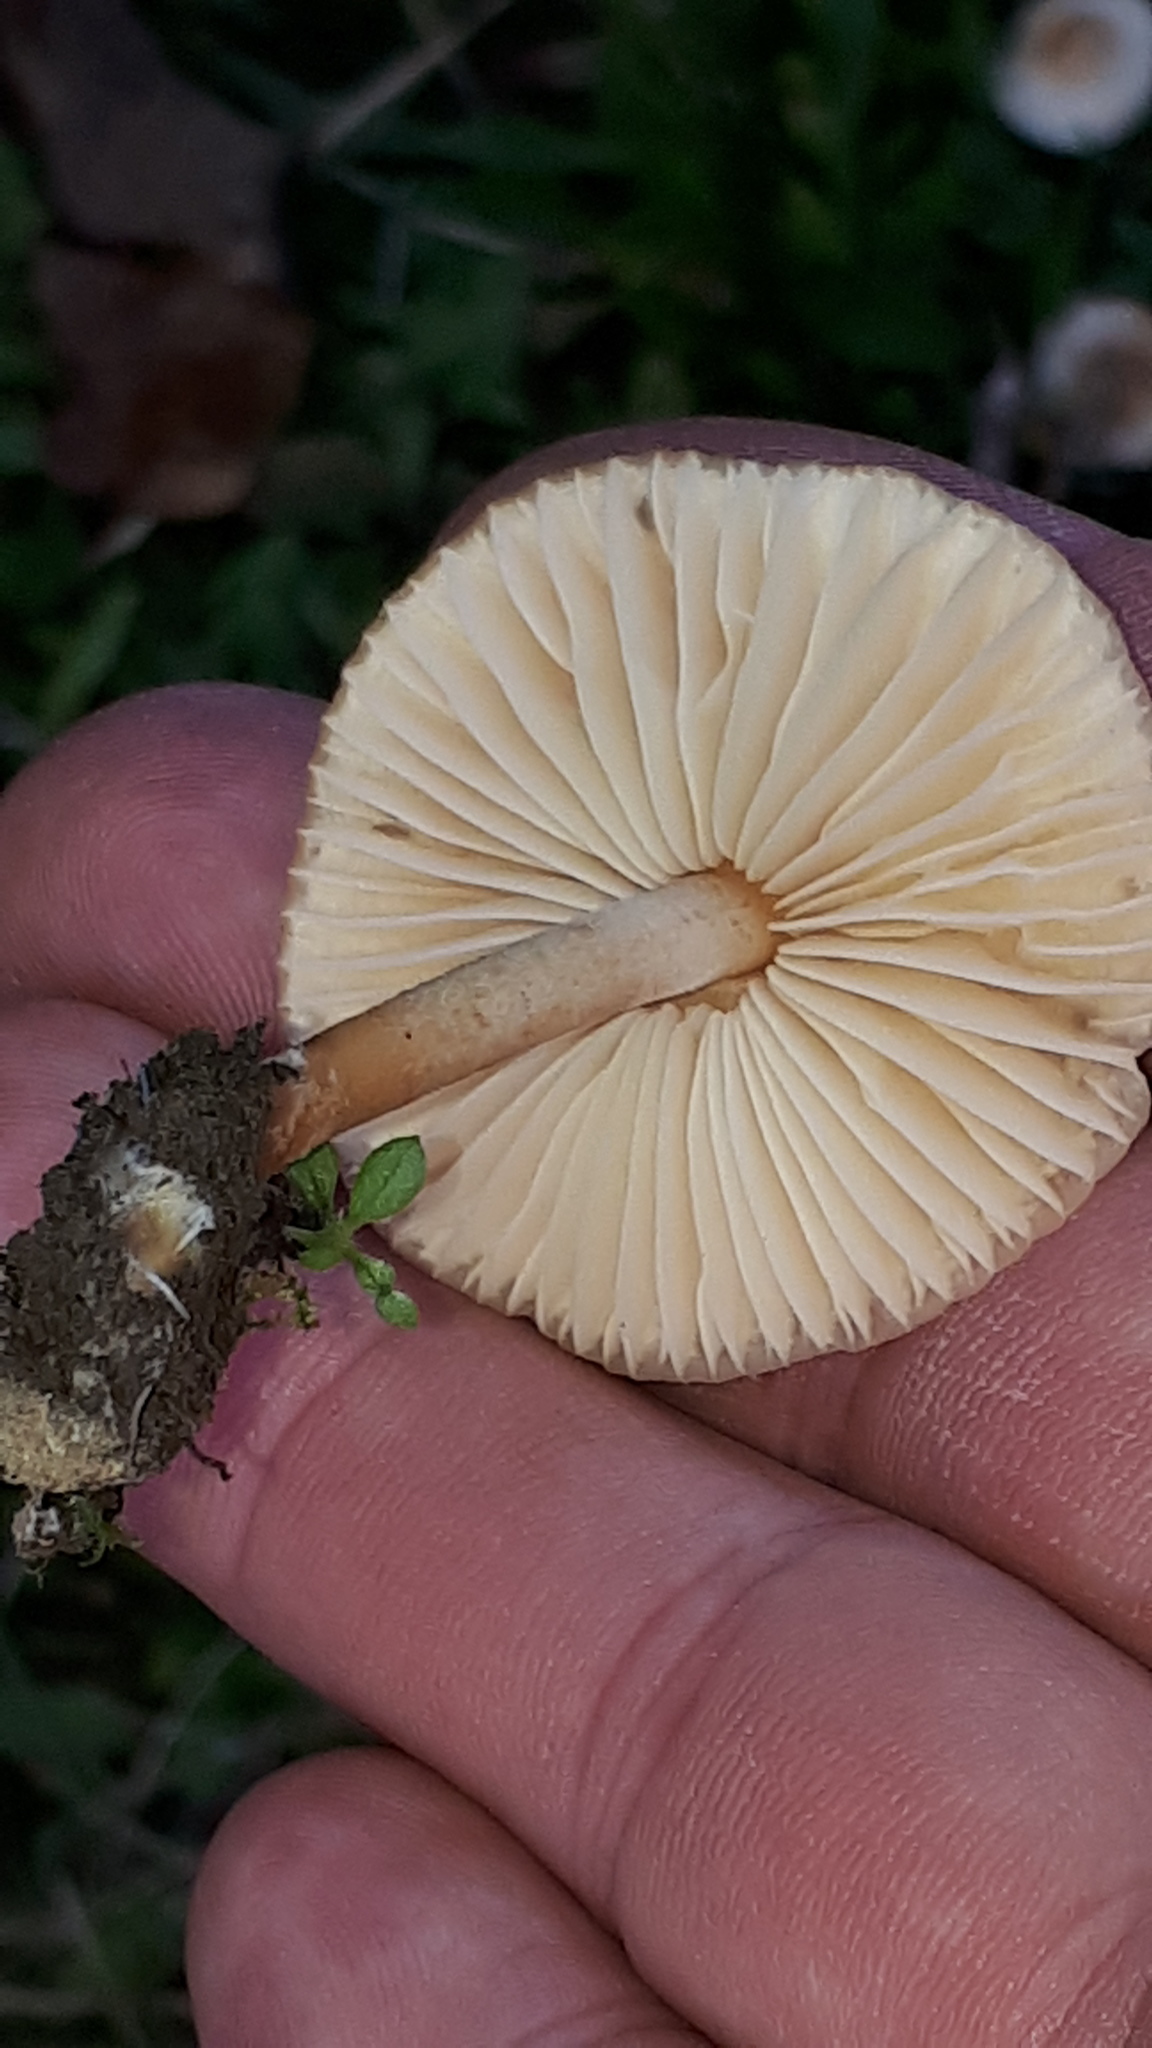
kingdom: Fungi
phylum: Basidiomycota
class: Agaricomycetes
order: Agaricales
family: Marasmiaceae
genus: Marasmius
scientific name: Marasmius oreades
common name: Fairy ring champignon
